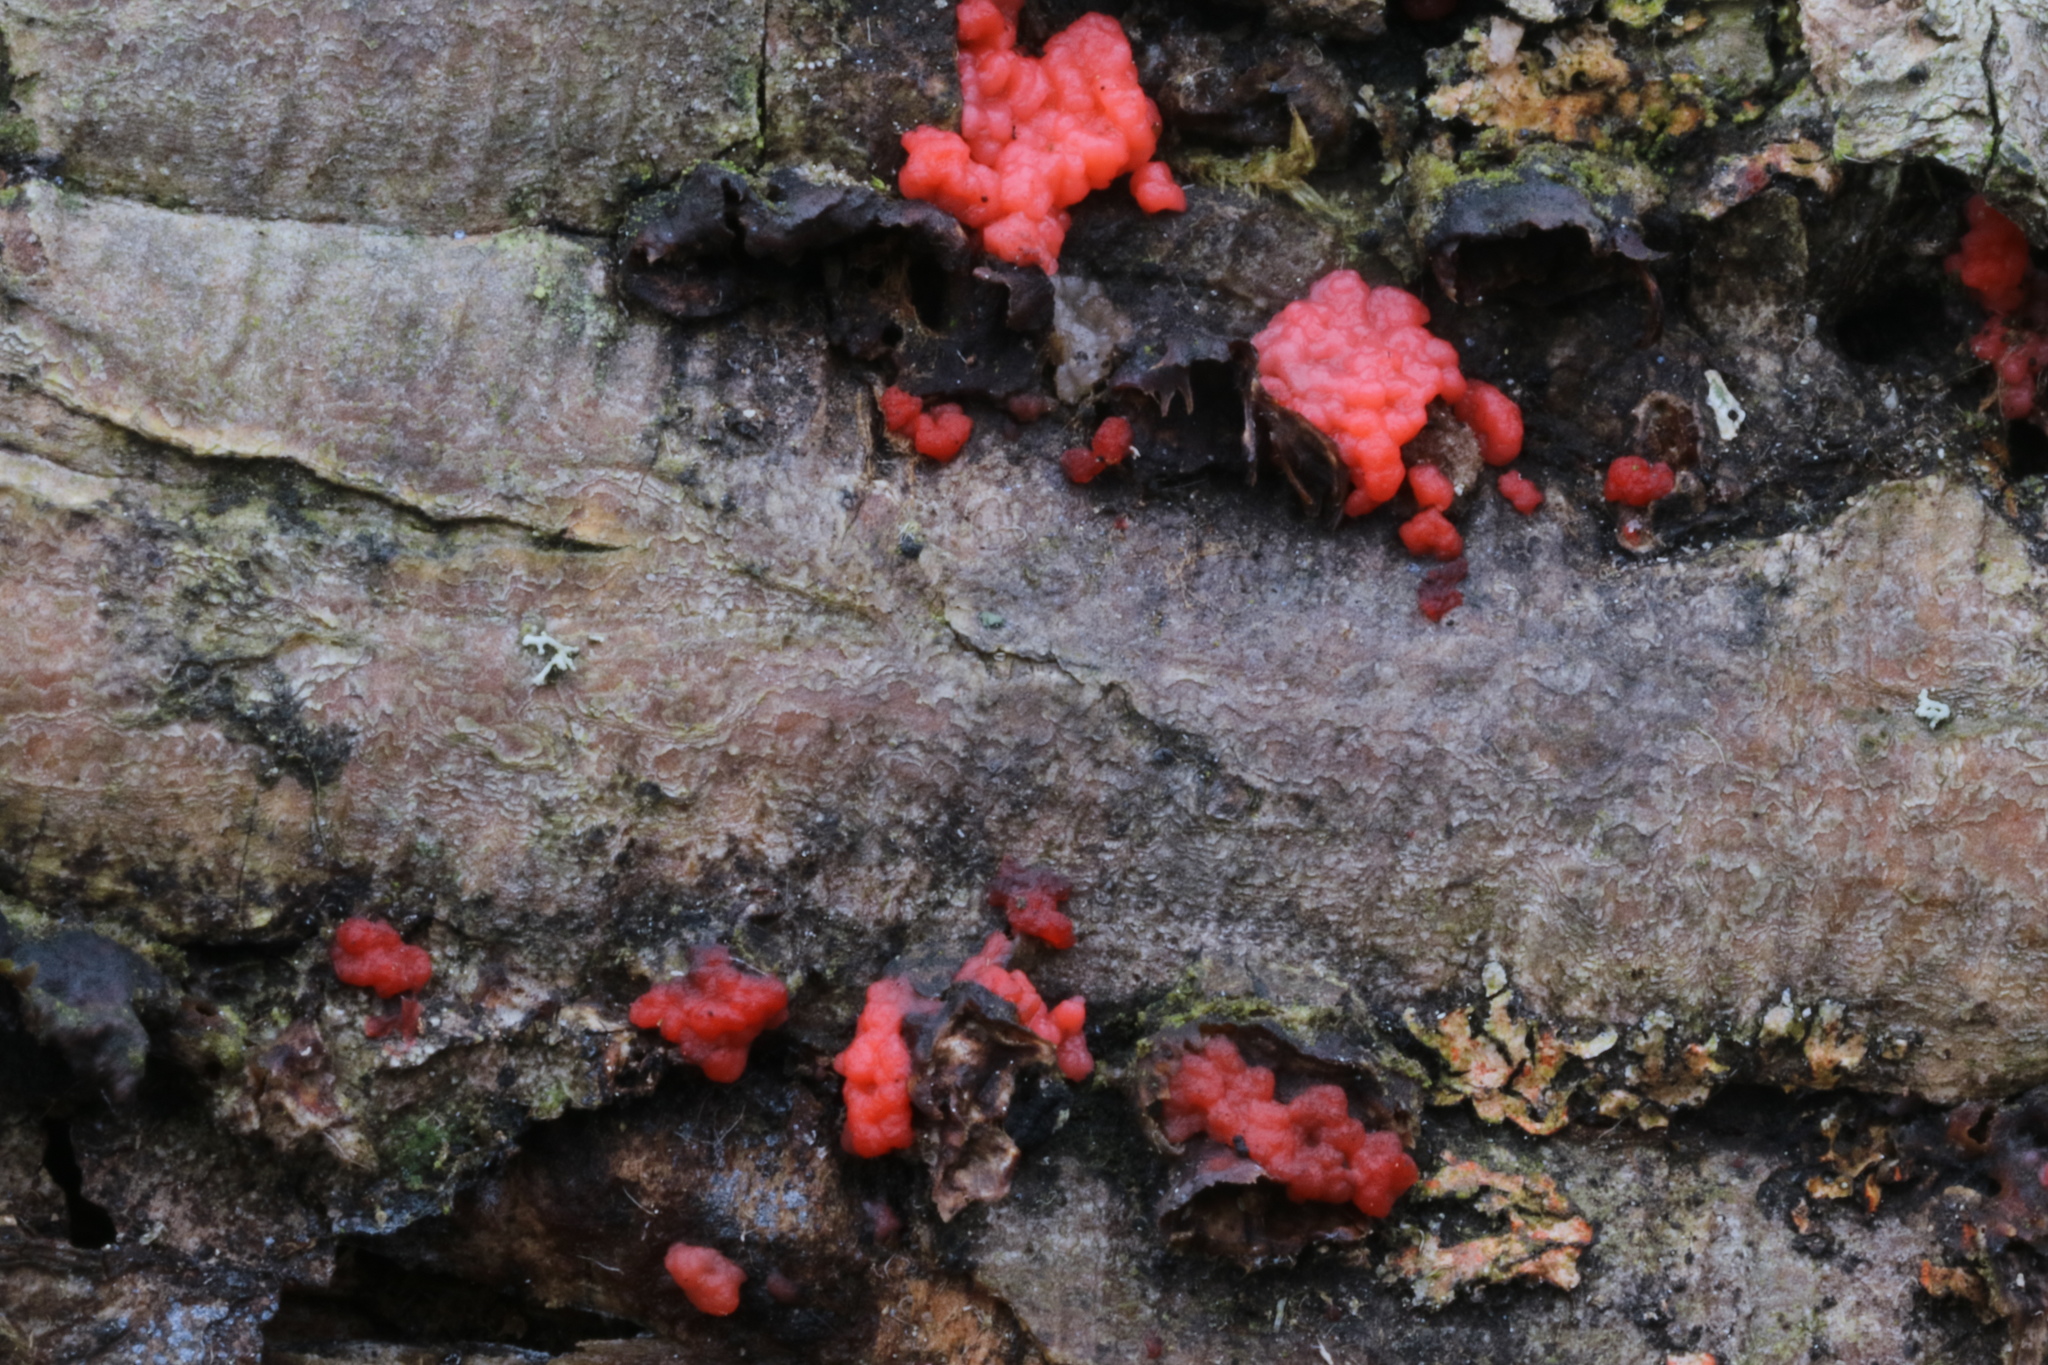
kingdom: Fungi
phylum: Basidiomycota
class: Agaricomycetes
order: Cantharellales
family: Tulasnellaceae
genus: Tulasnella
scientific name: Tulasnella aurantiaca
